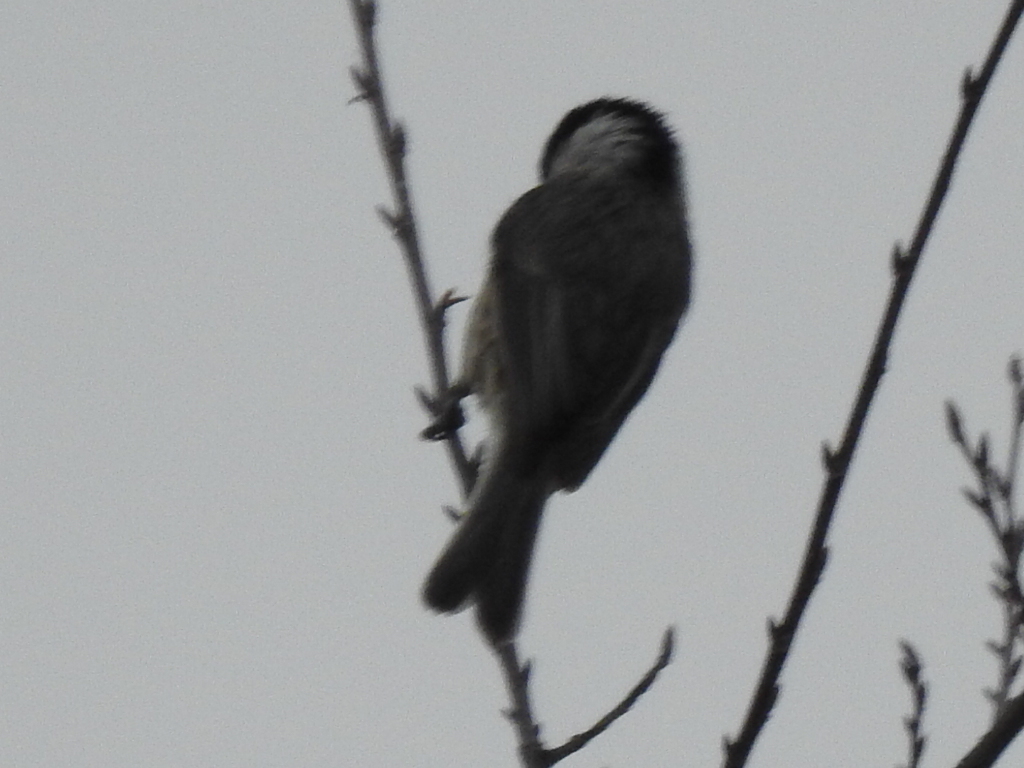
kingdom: Animalia
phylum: Chordata
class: Aves
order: Passeriformes
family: Paridae
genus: Poecile
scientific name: Poecile carolinensis
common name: Carolina chickadee
